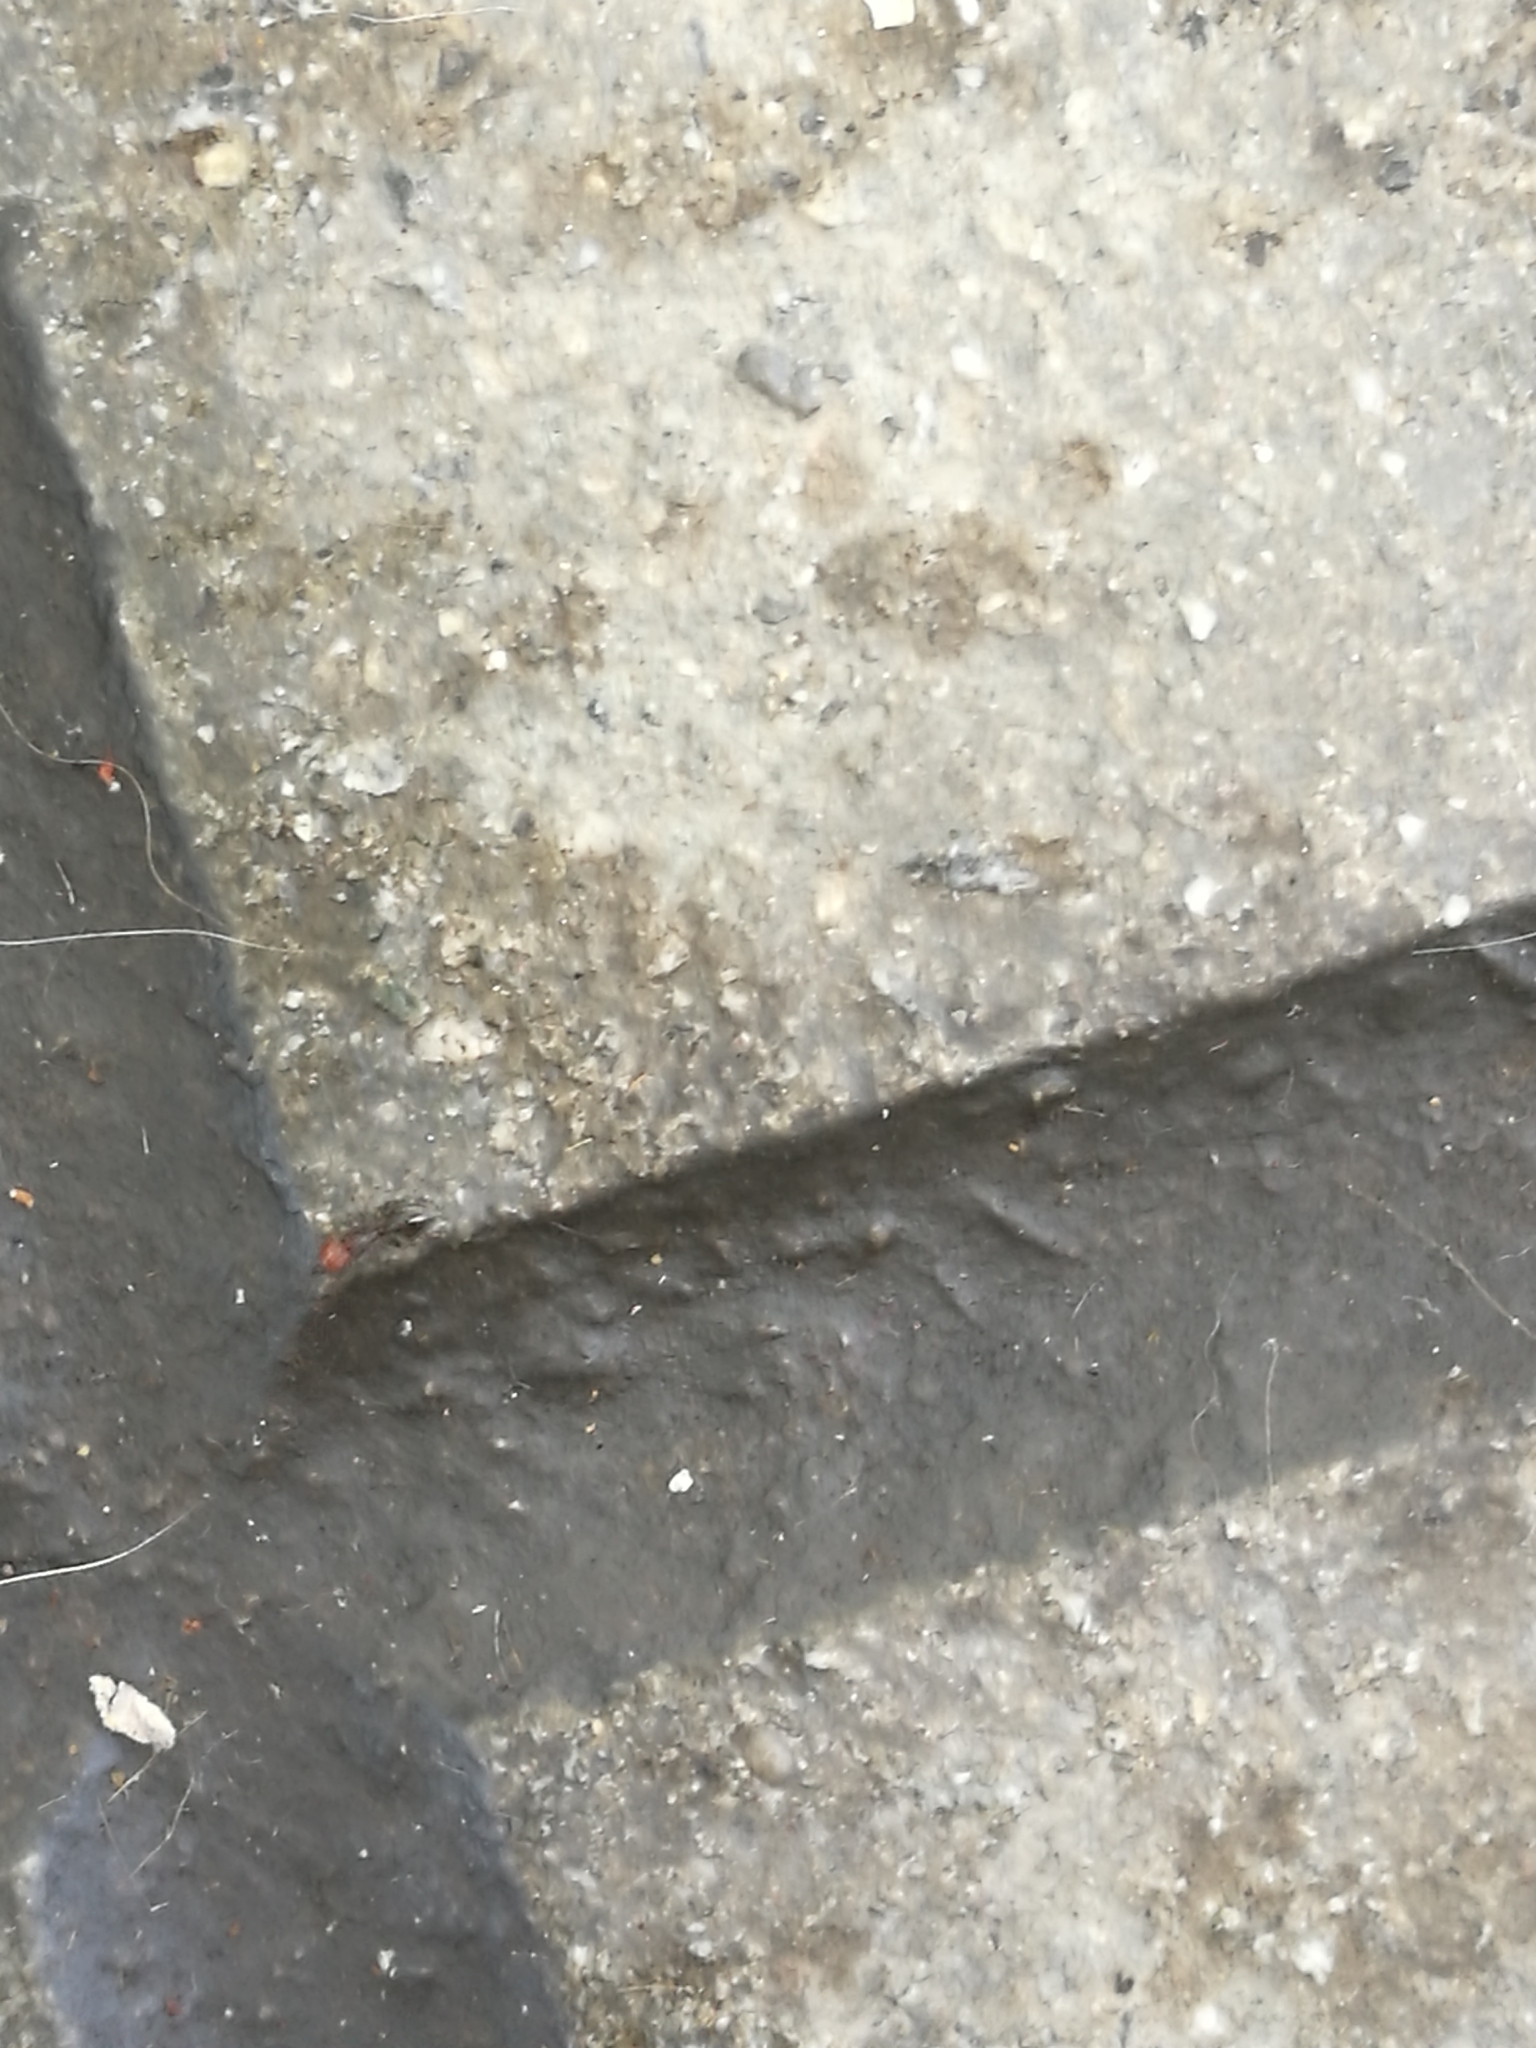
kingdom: Animalia
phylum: Arthropoda
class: Insecta
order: Hymenoptera
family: Formicidae
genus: Crematogaster
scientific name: Crematogaster scutellaris
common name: Fourmi du liège
